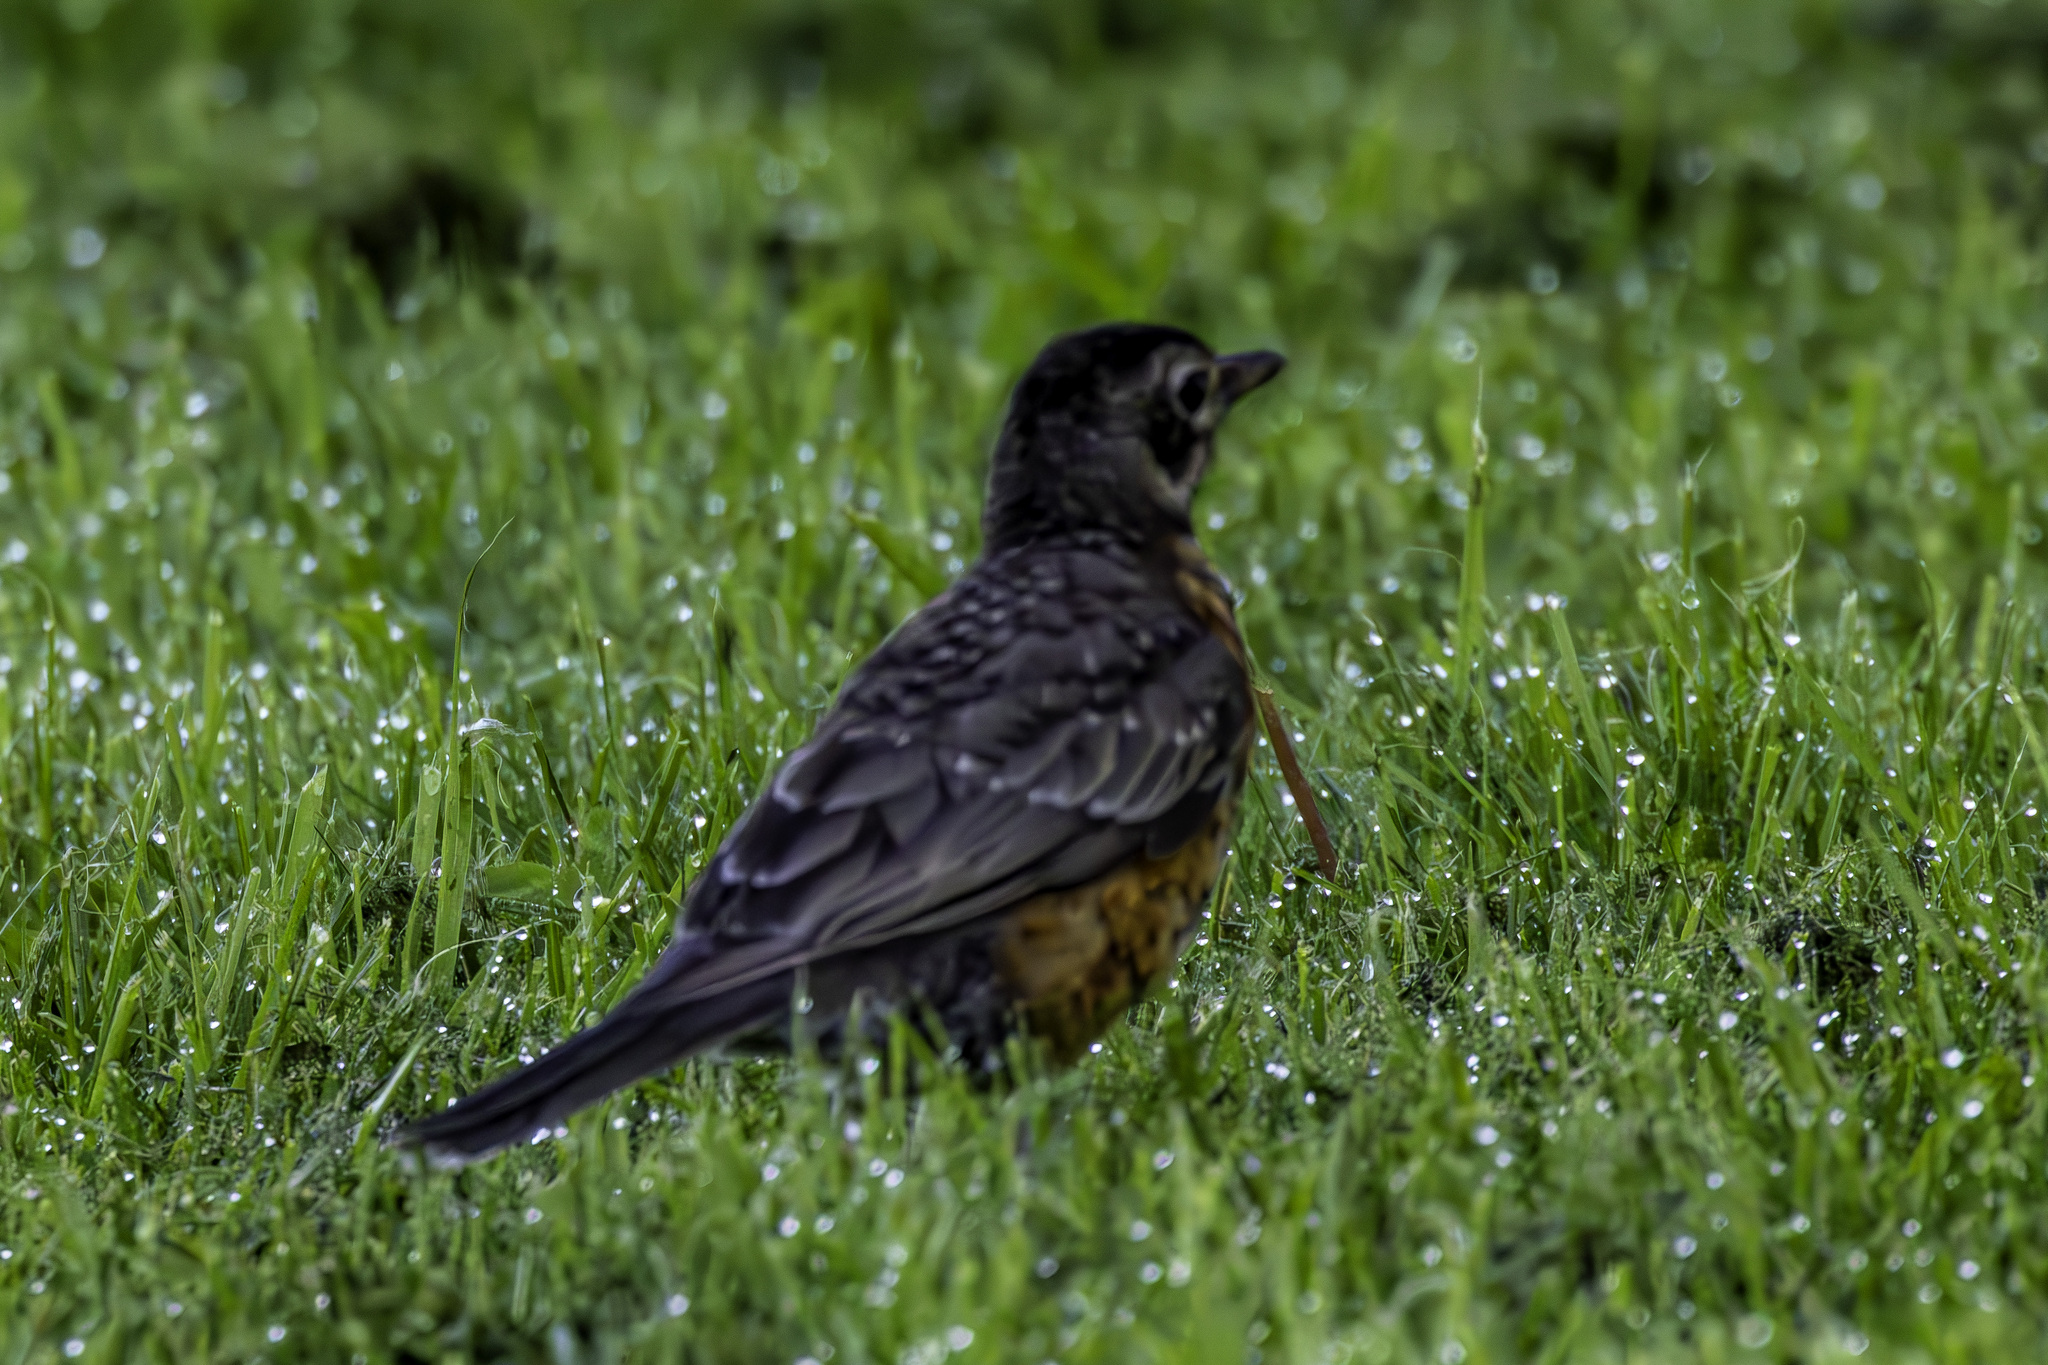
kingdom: Animalia
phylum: Chordata
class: Aves
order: Passeriformes
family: Turdidae
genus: Turdus
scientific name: Turdus migratorius
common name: American robin
